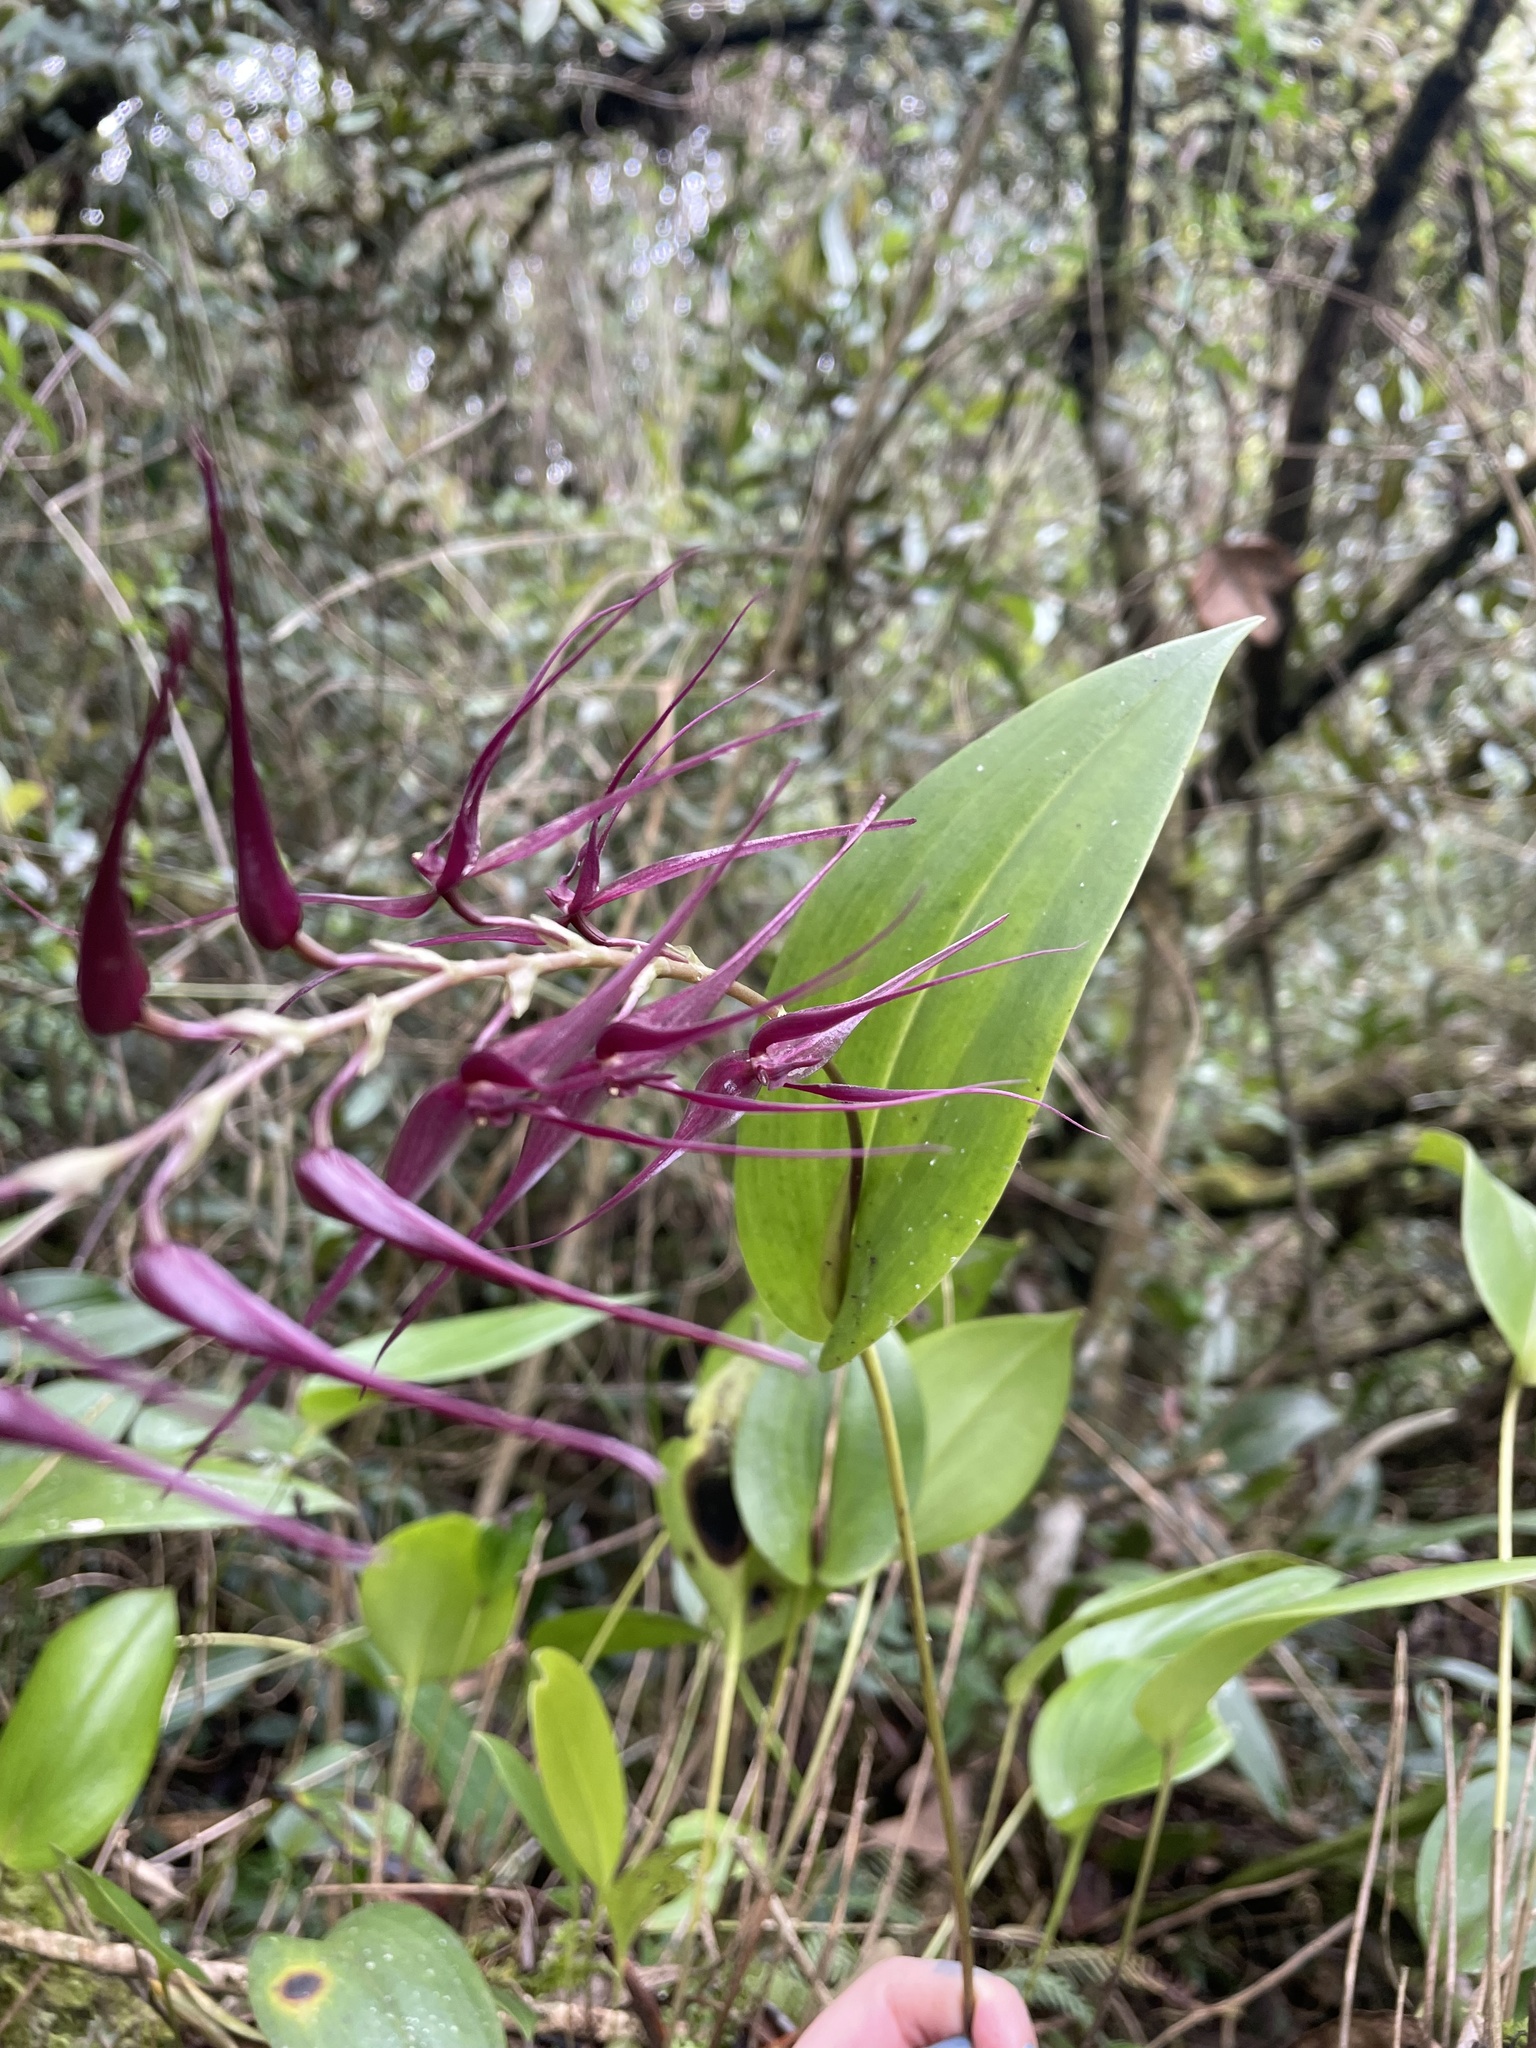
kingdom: Plantae
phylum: Tracheophyta
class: Liliopsida
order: Asparagales
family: Orchidaceae
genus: Pleurothallis
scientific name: Pleurothallis phalangifera
